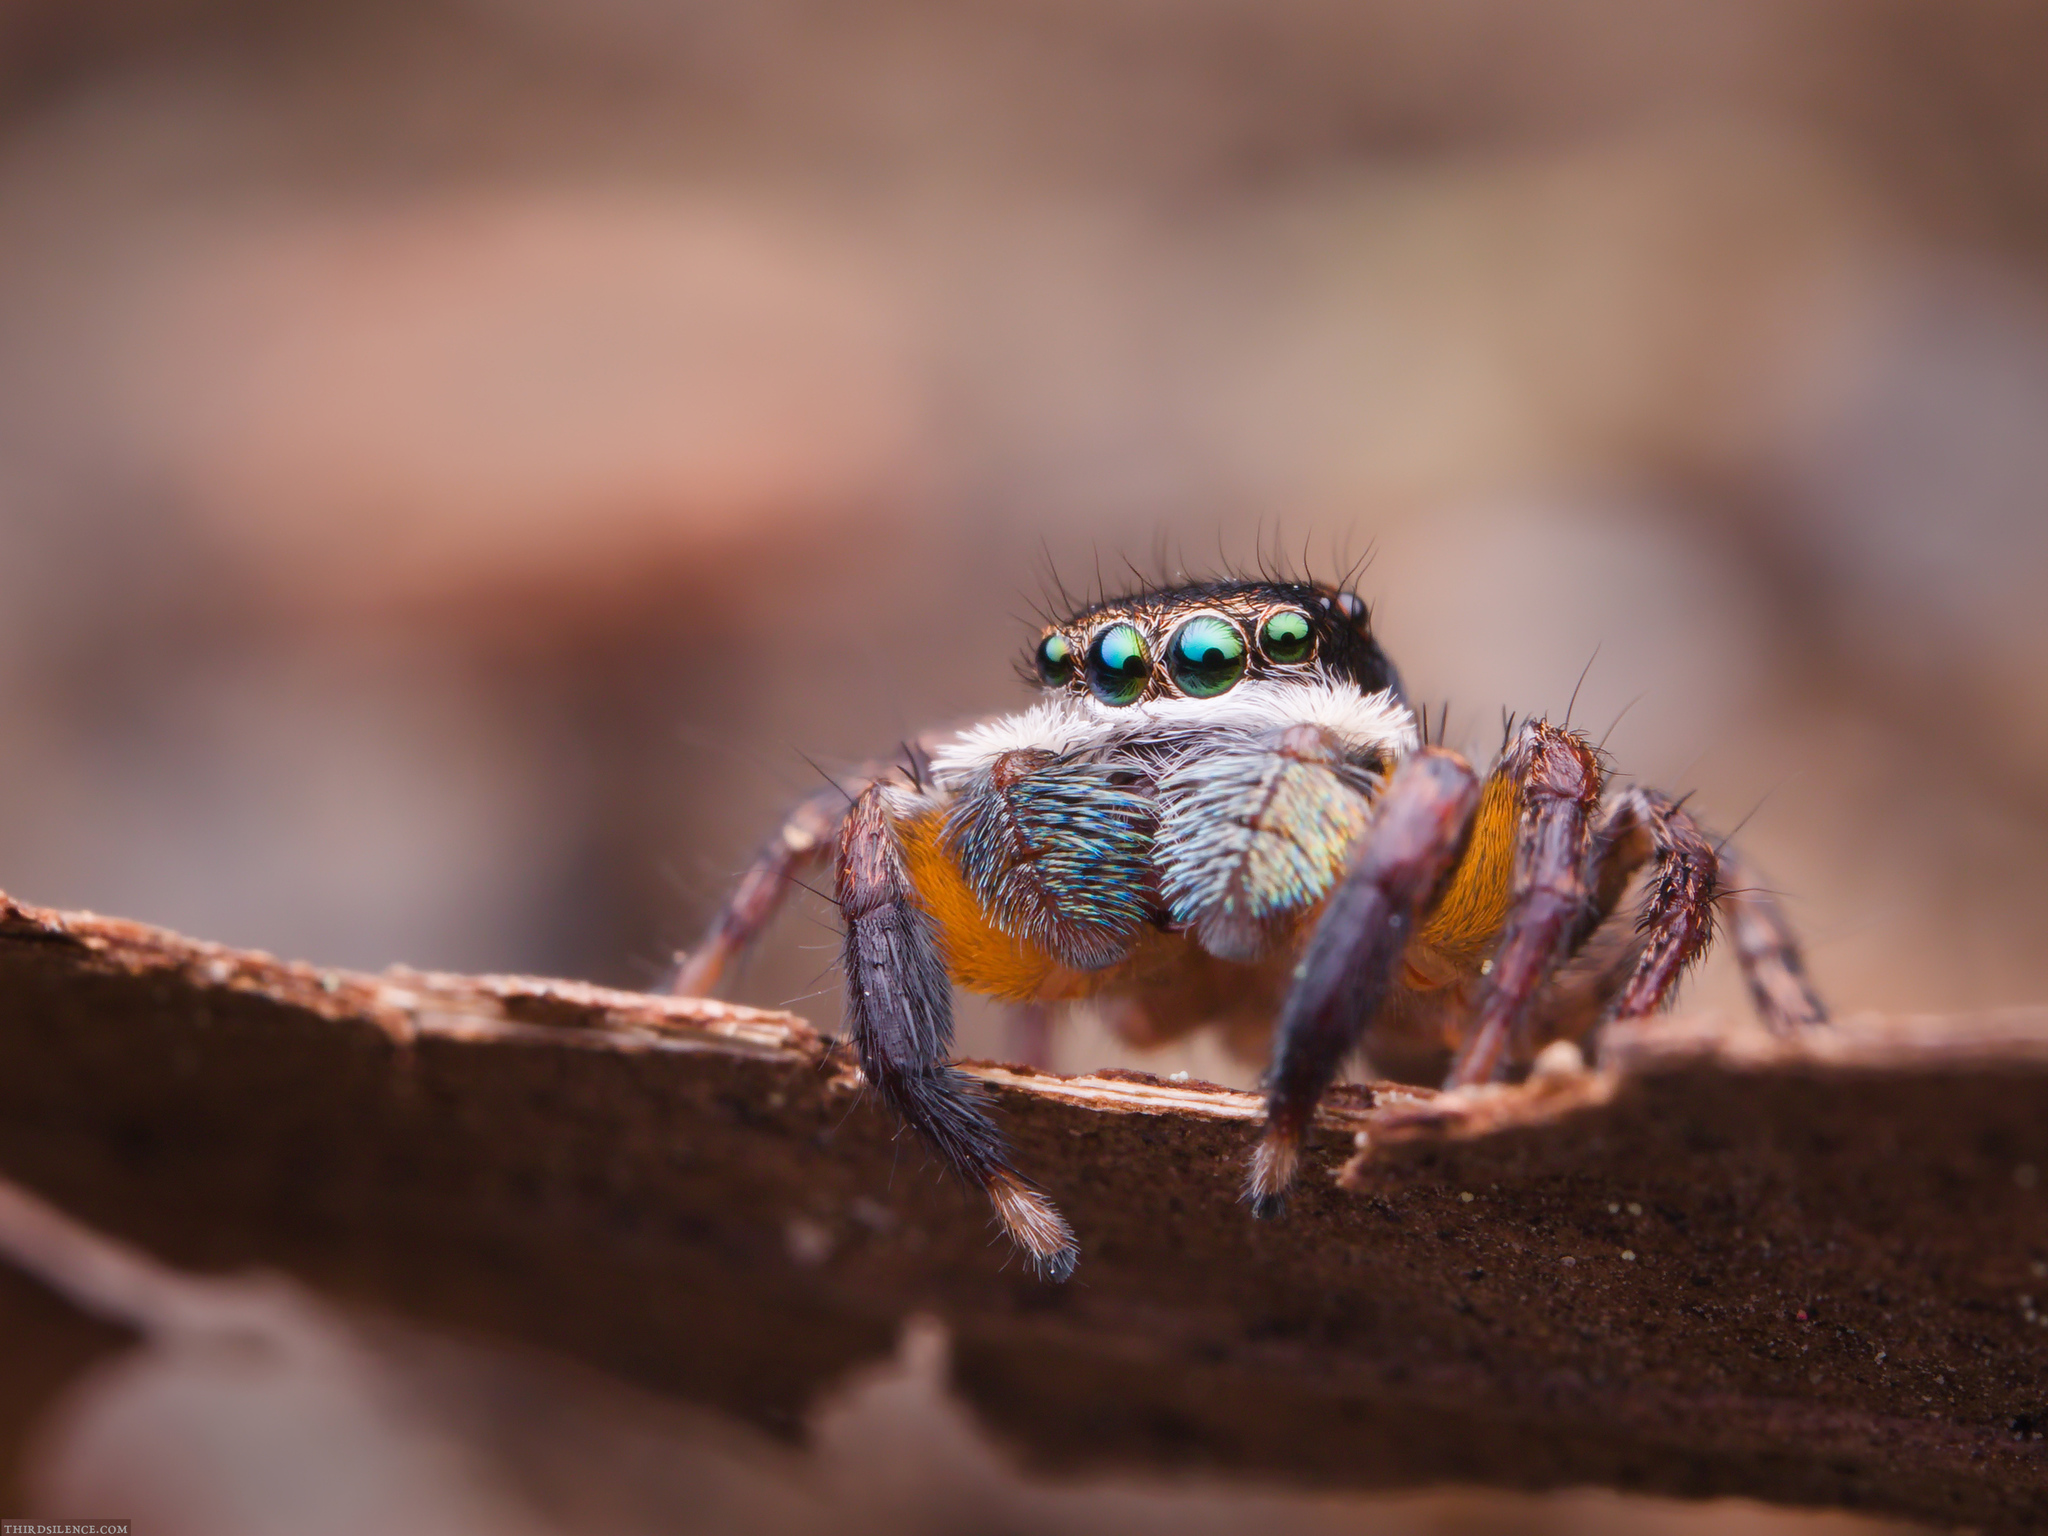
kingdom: Animalia
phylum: Arthropoda
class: Arachnida
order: Araneae
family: Salticidae
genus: Jotus
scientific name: Jotus auripes
